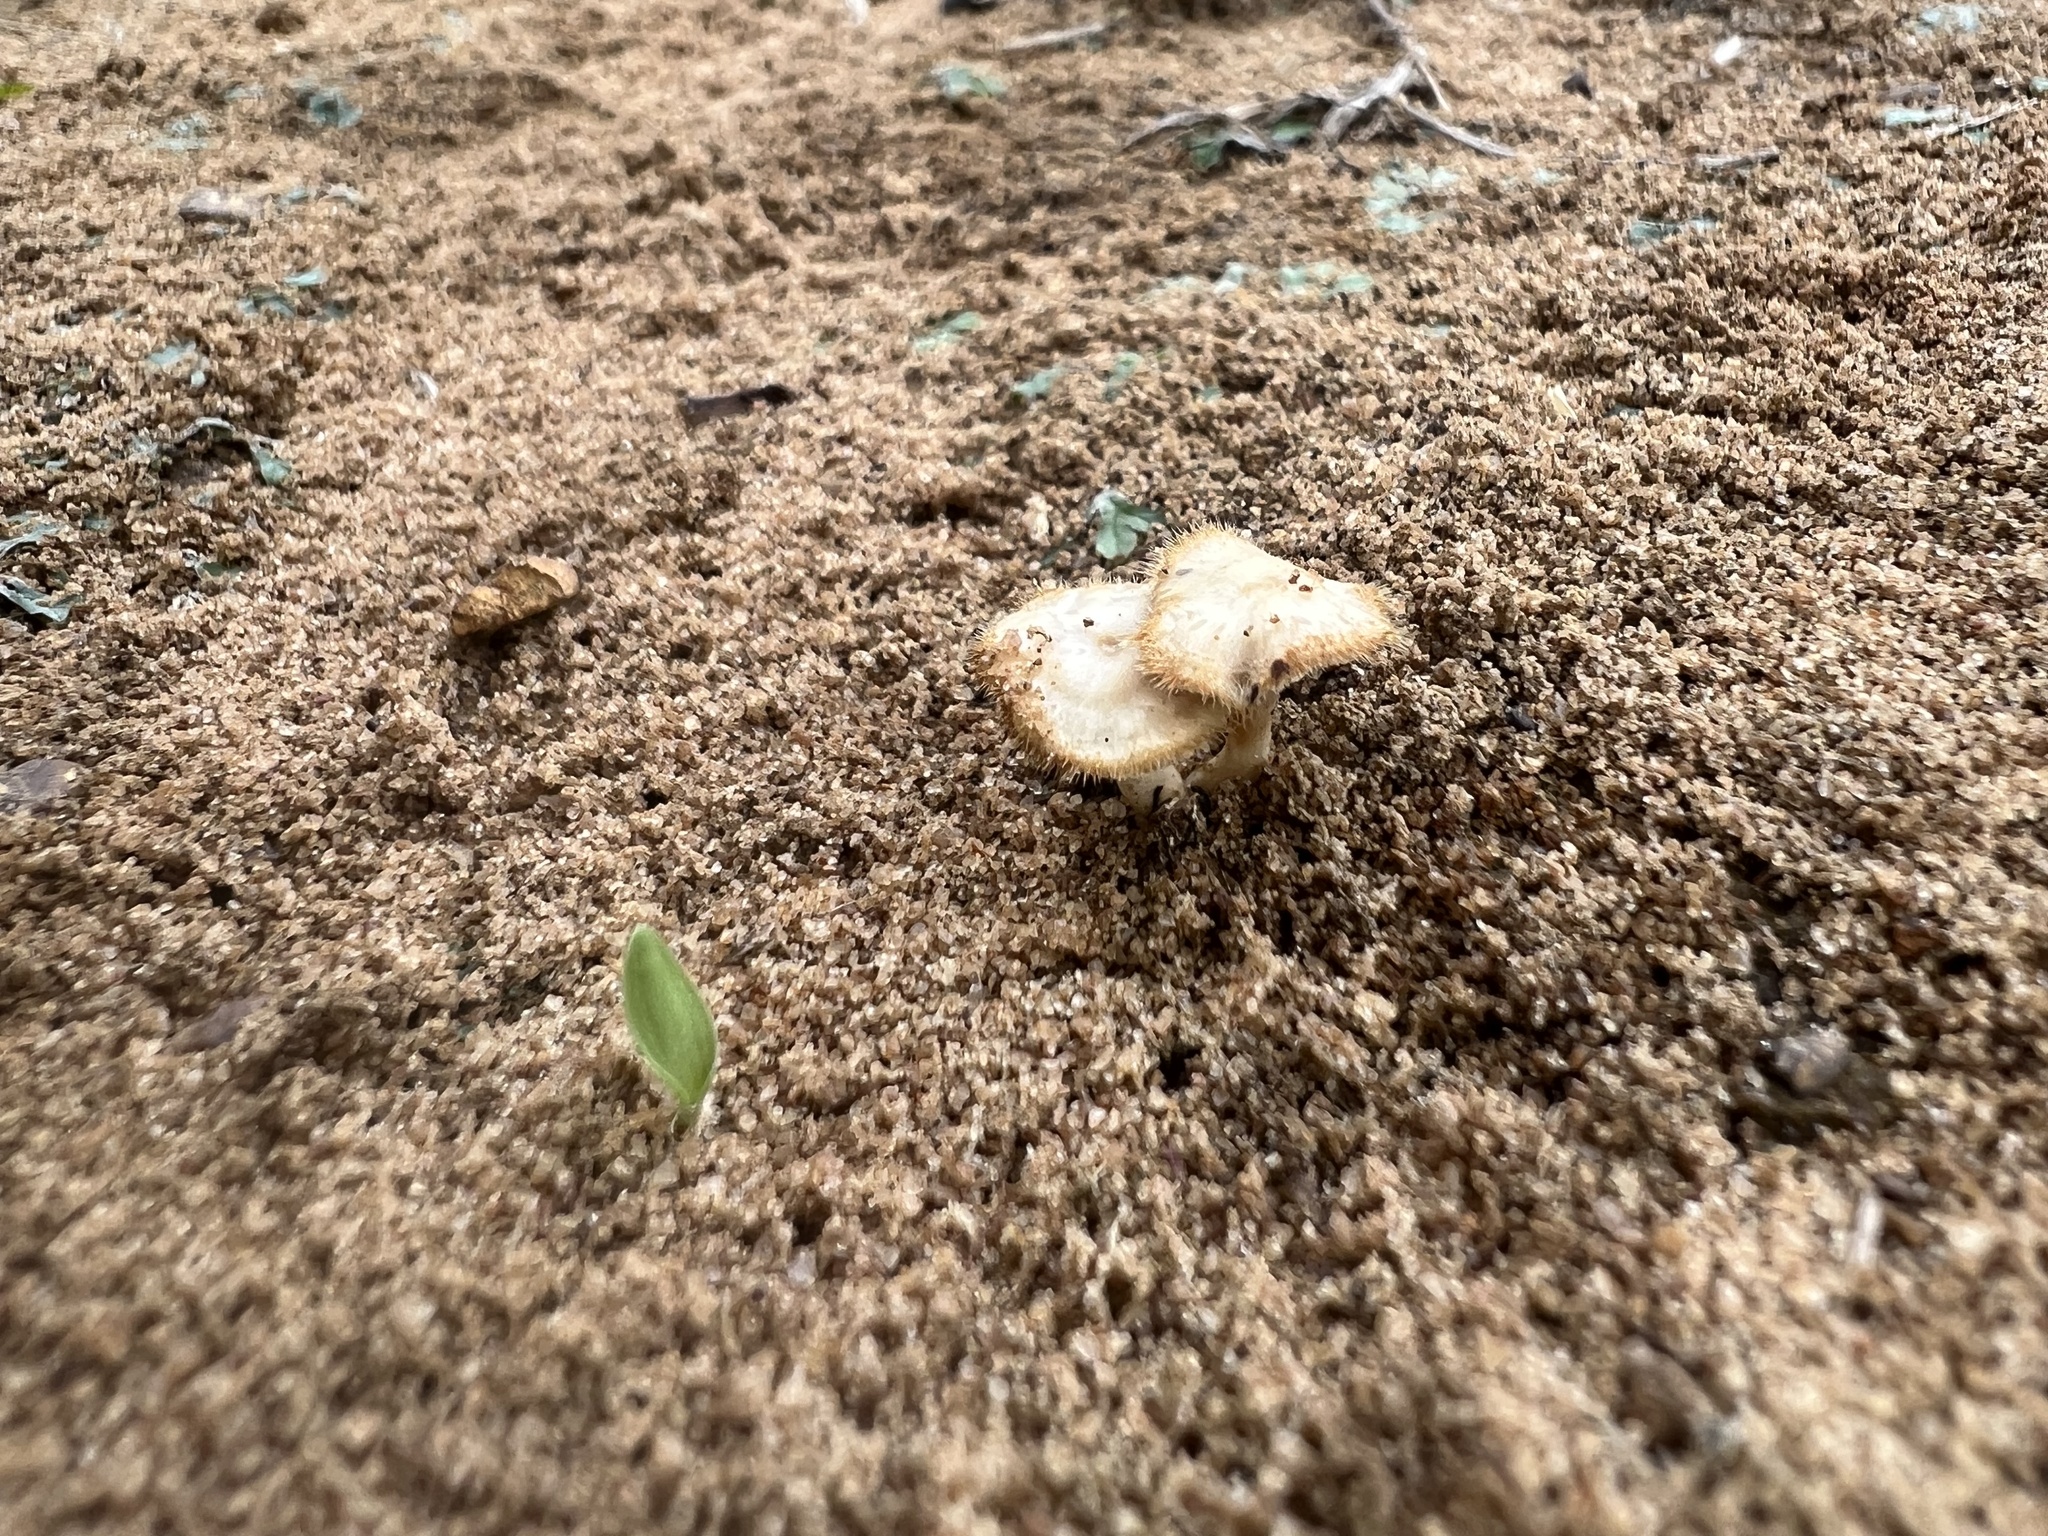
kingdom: Fungi
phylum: Basidiomycota
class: Agaricomycetes
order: Polyporales
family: Polyporaceae
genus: Lentinus
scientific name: Lentinus flexipes
